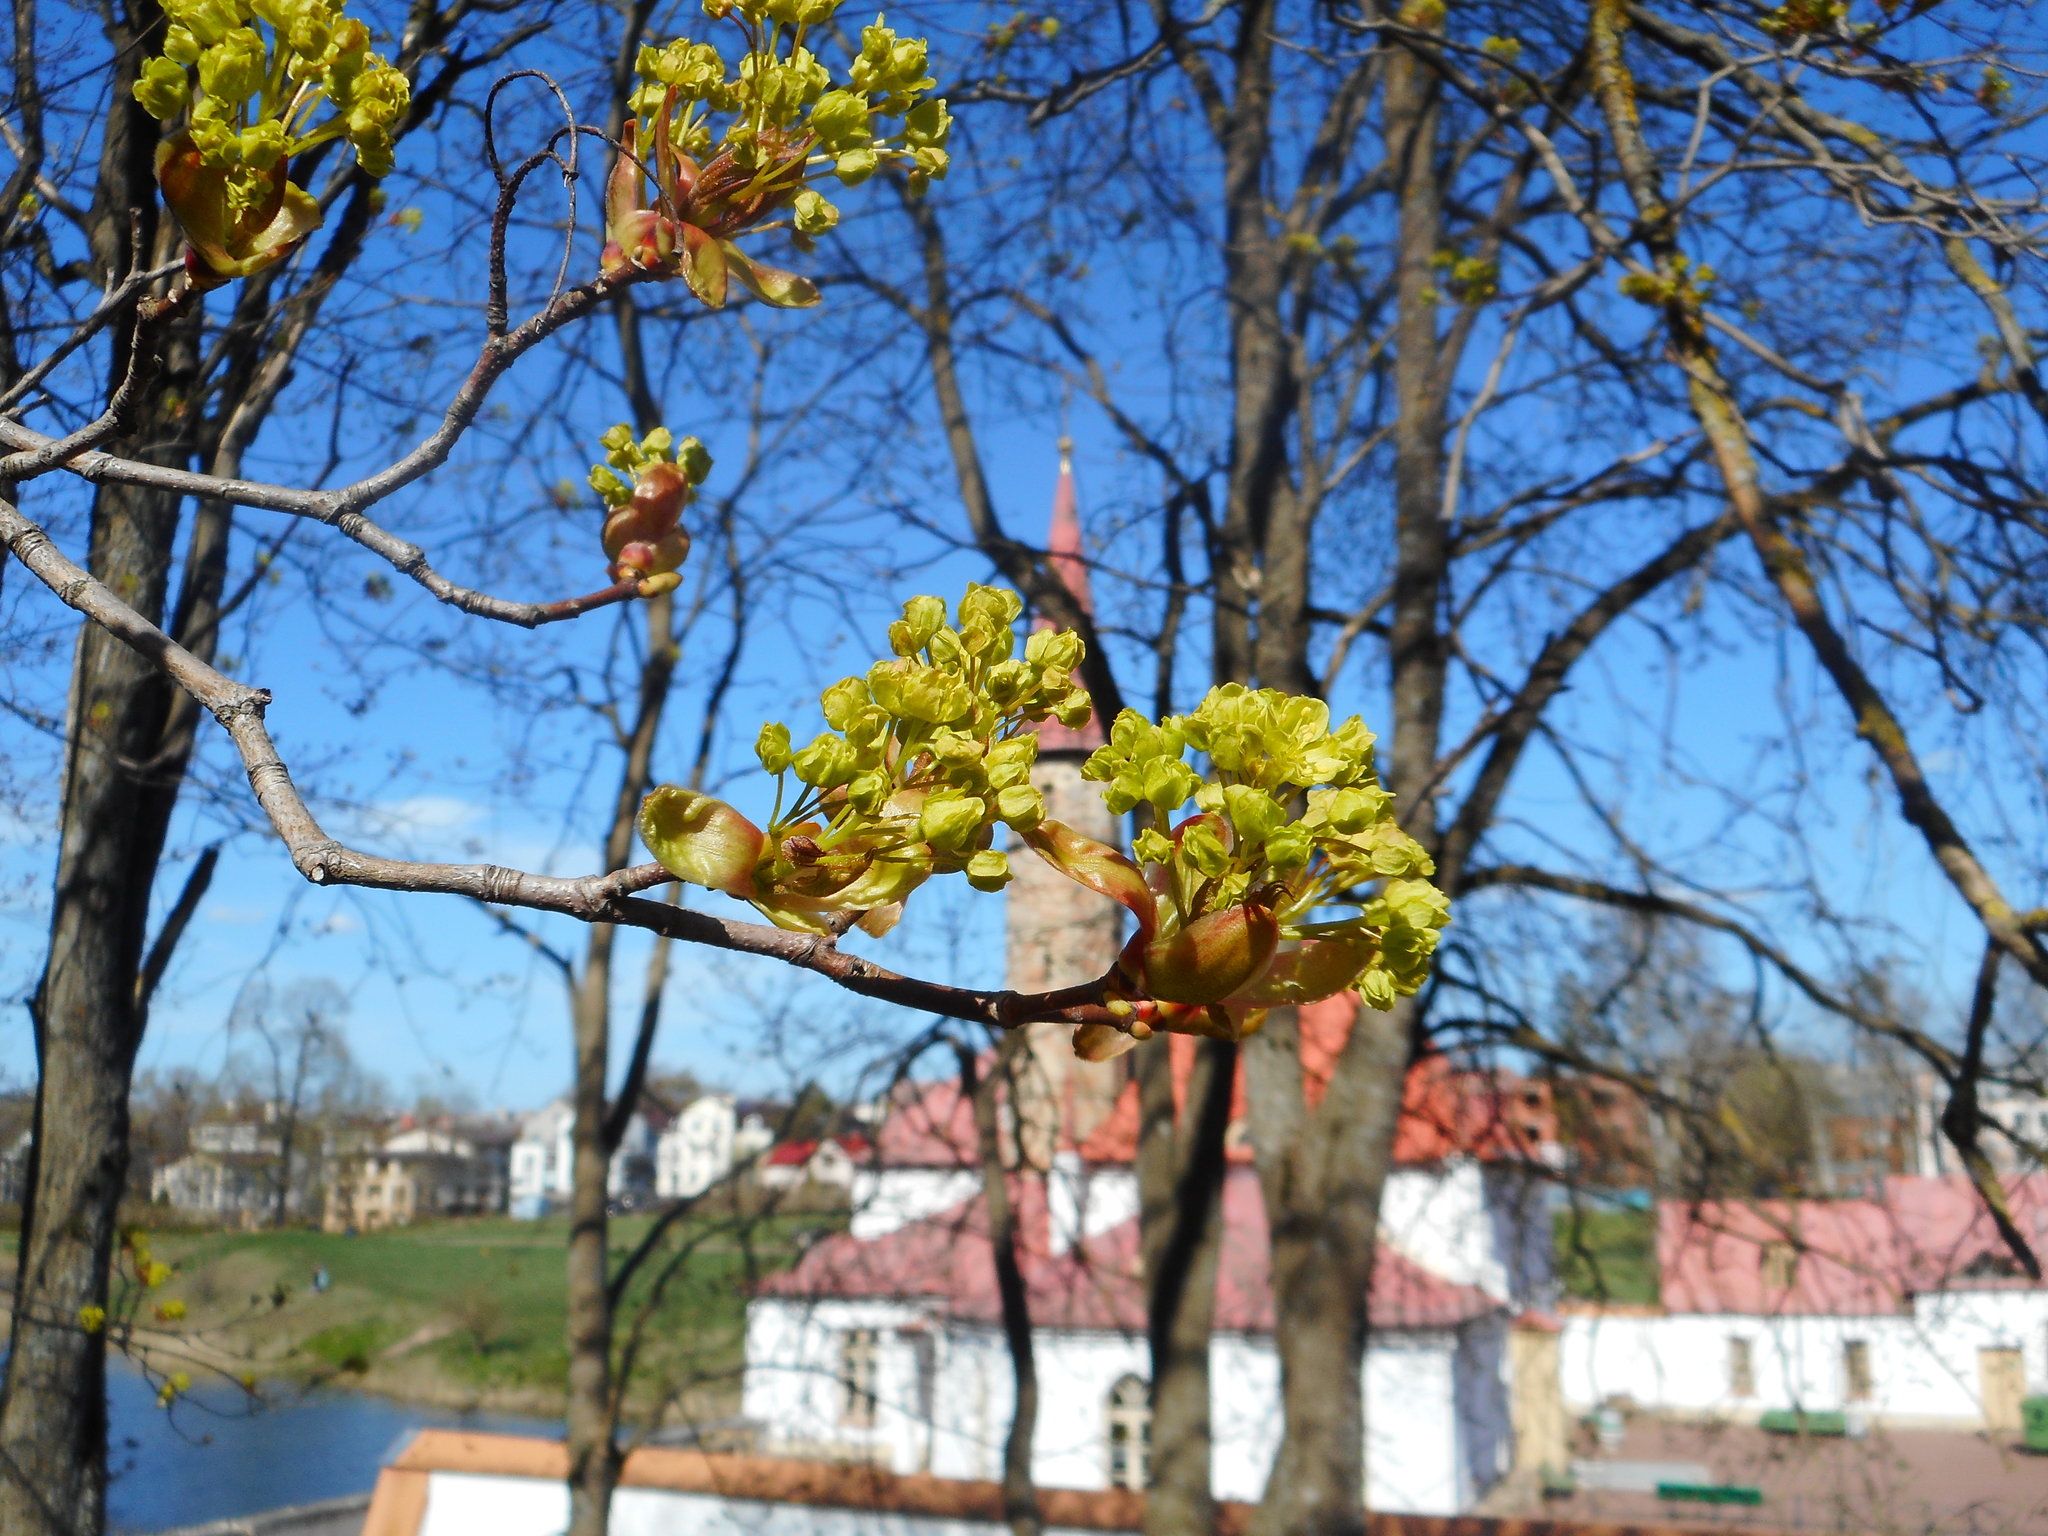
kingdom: Plantae
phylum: Tracheophyta
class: Magnoliopsida
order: Sapindales
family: Sapindaceae
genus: Acer
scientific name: Acer platanoides
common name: Norway maple
